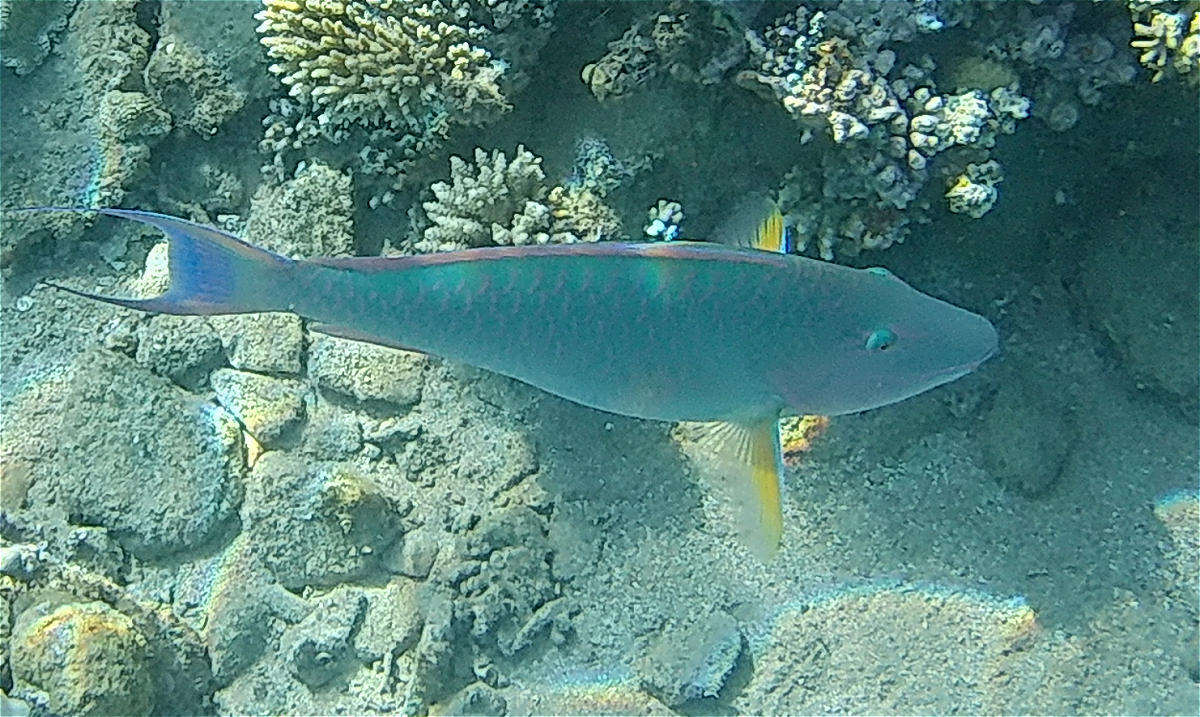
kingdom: Animalia
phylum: Chordata
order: Perciformes
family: Scaridae
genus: Hipposcarus
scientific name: Hipposcarus harid
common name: Candelamoa parrotfish
